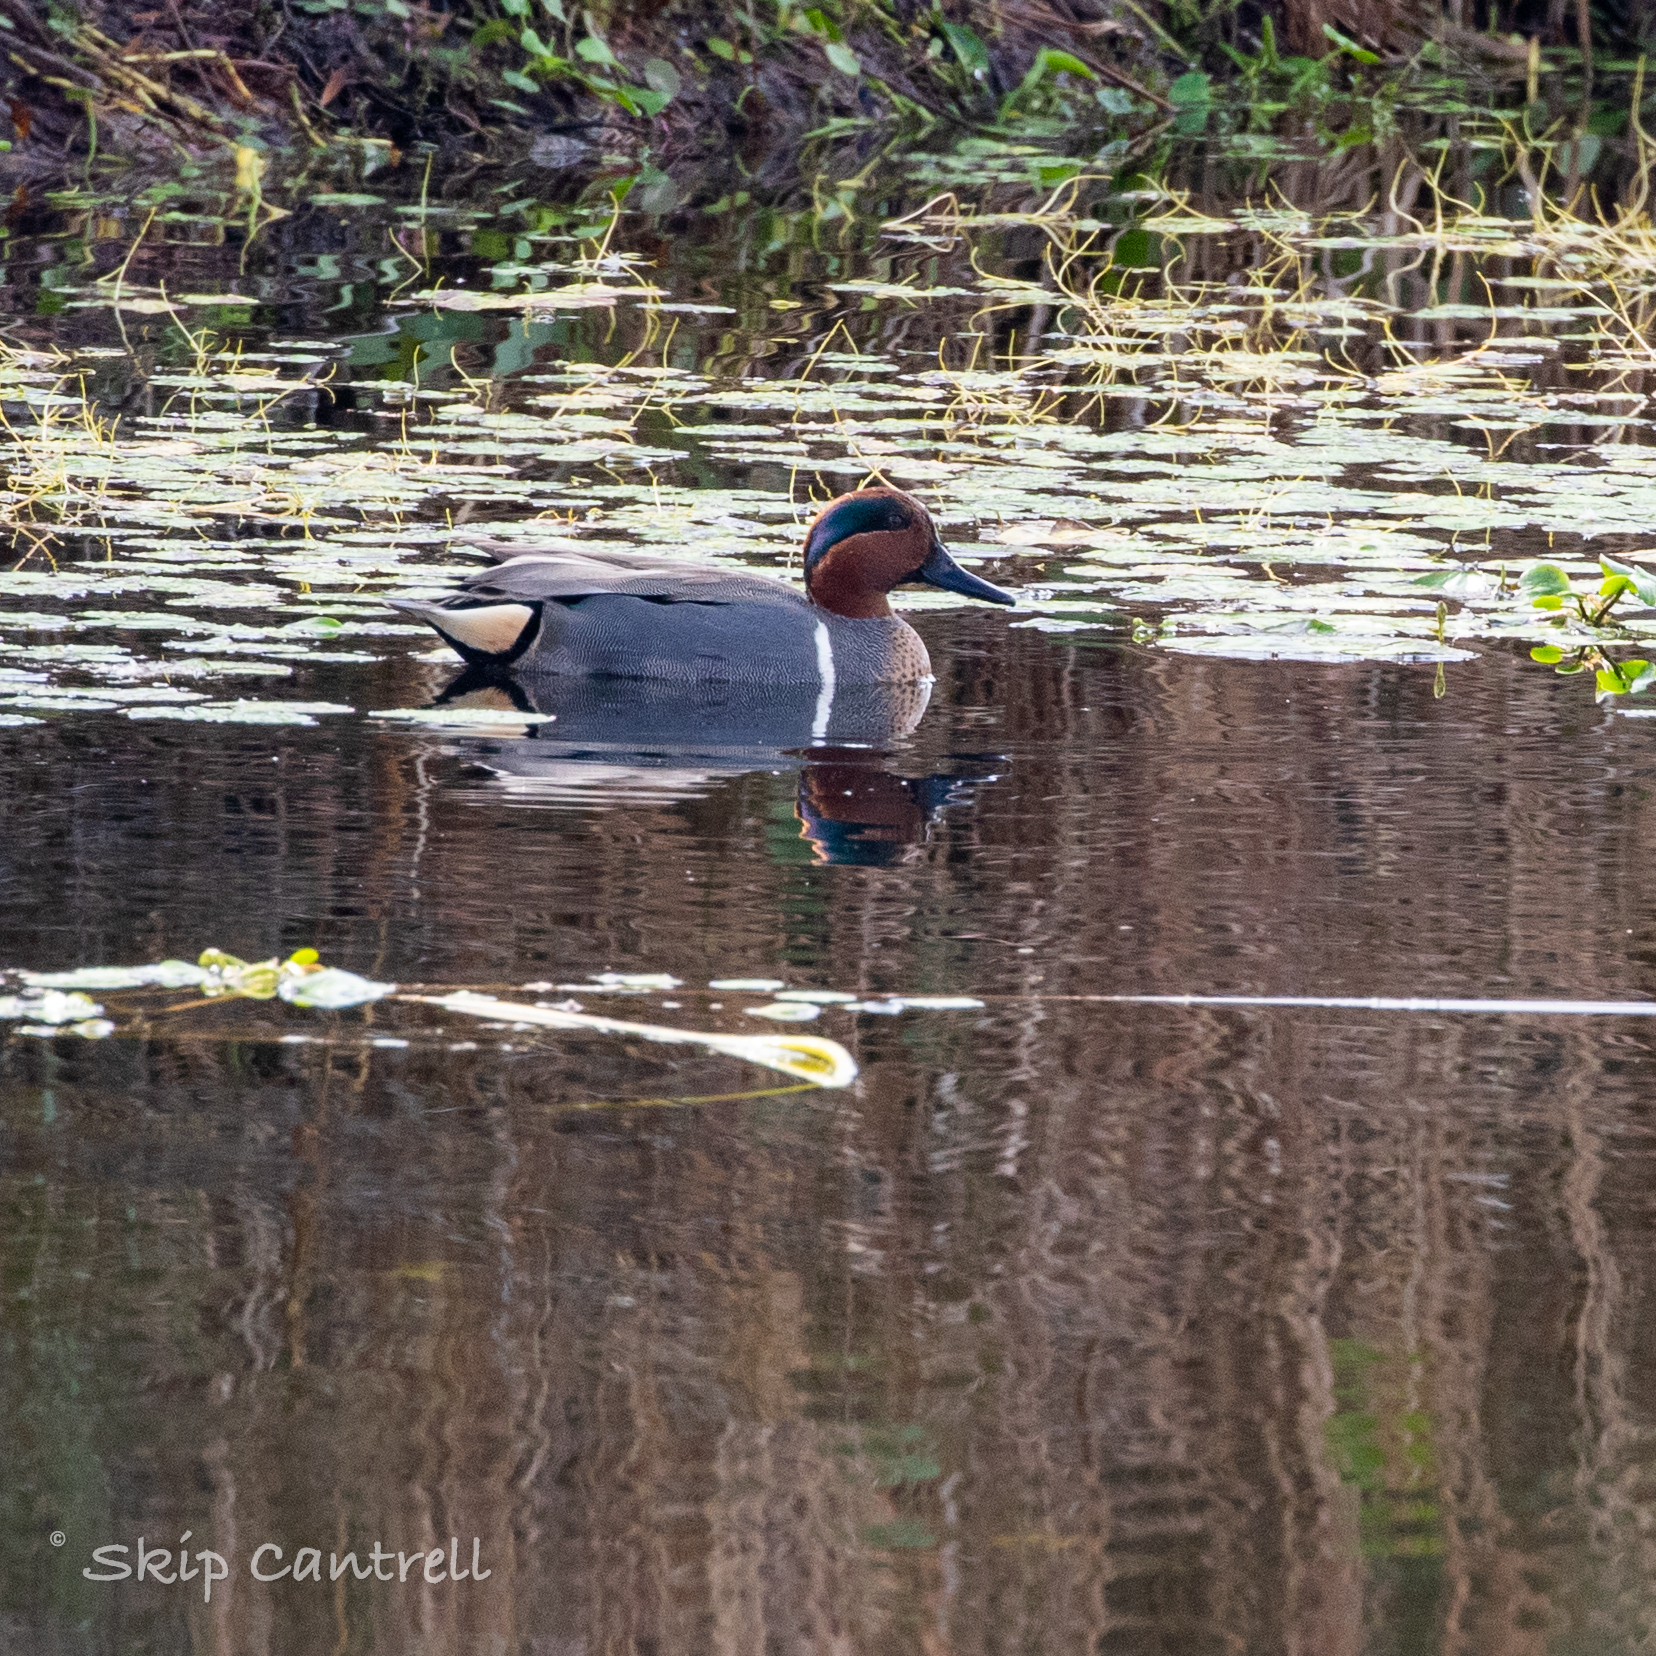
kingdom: Animalia
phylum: Chordata
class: Aves
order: Anseriformes
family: Anatidae
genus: Anas
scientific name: Anas crecca
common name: Eurasian teal
